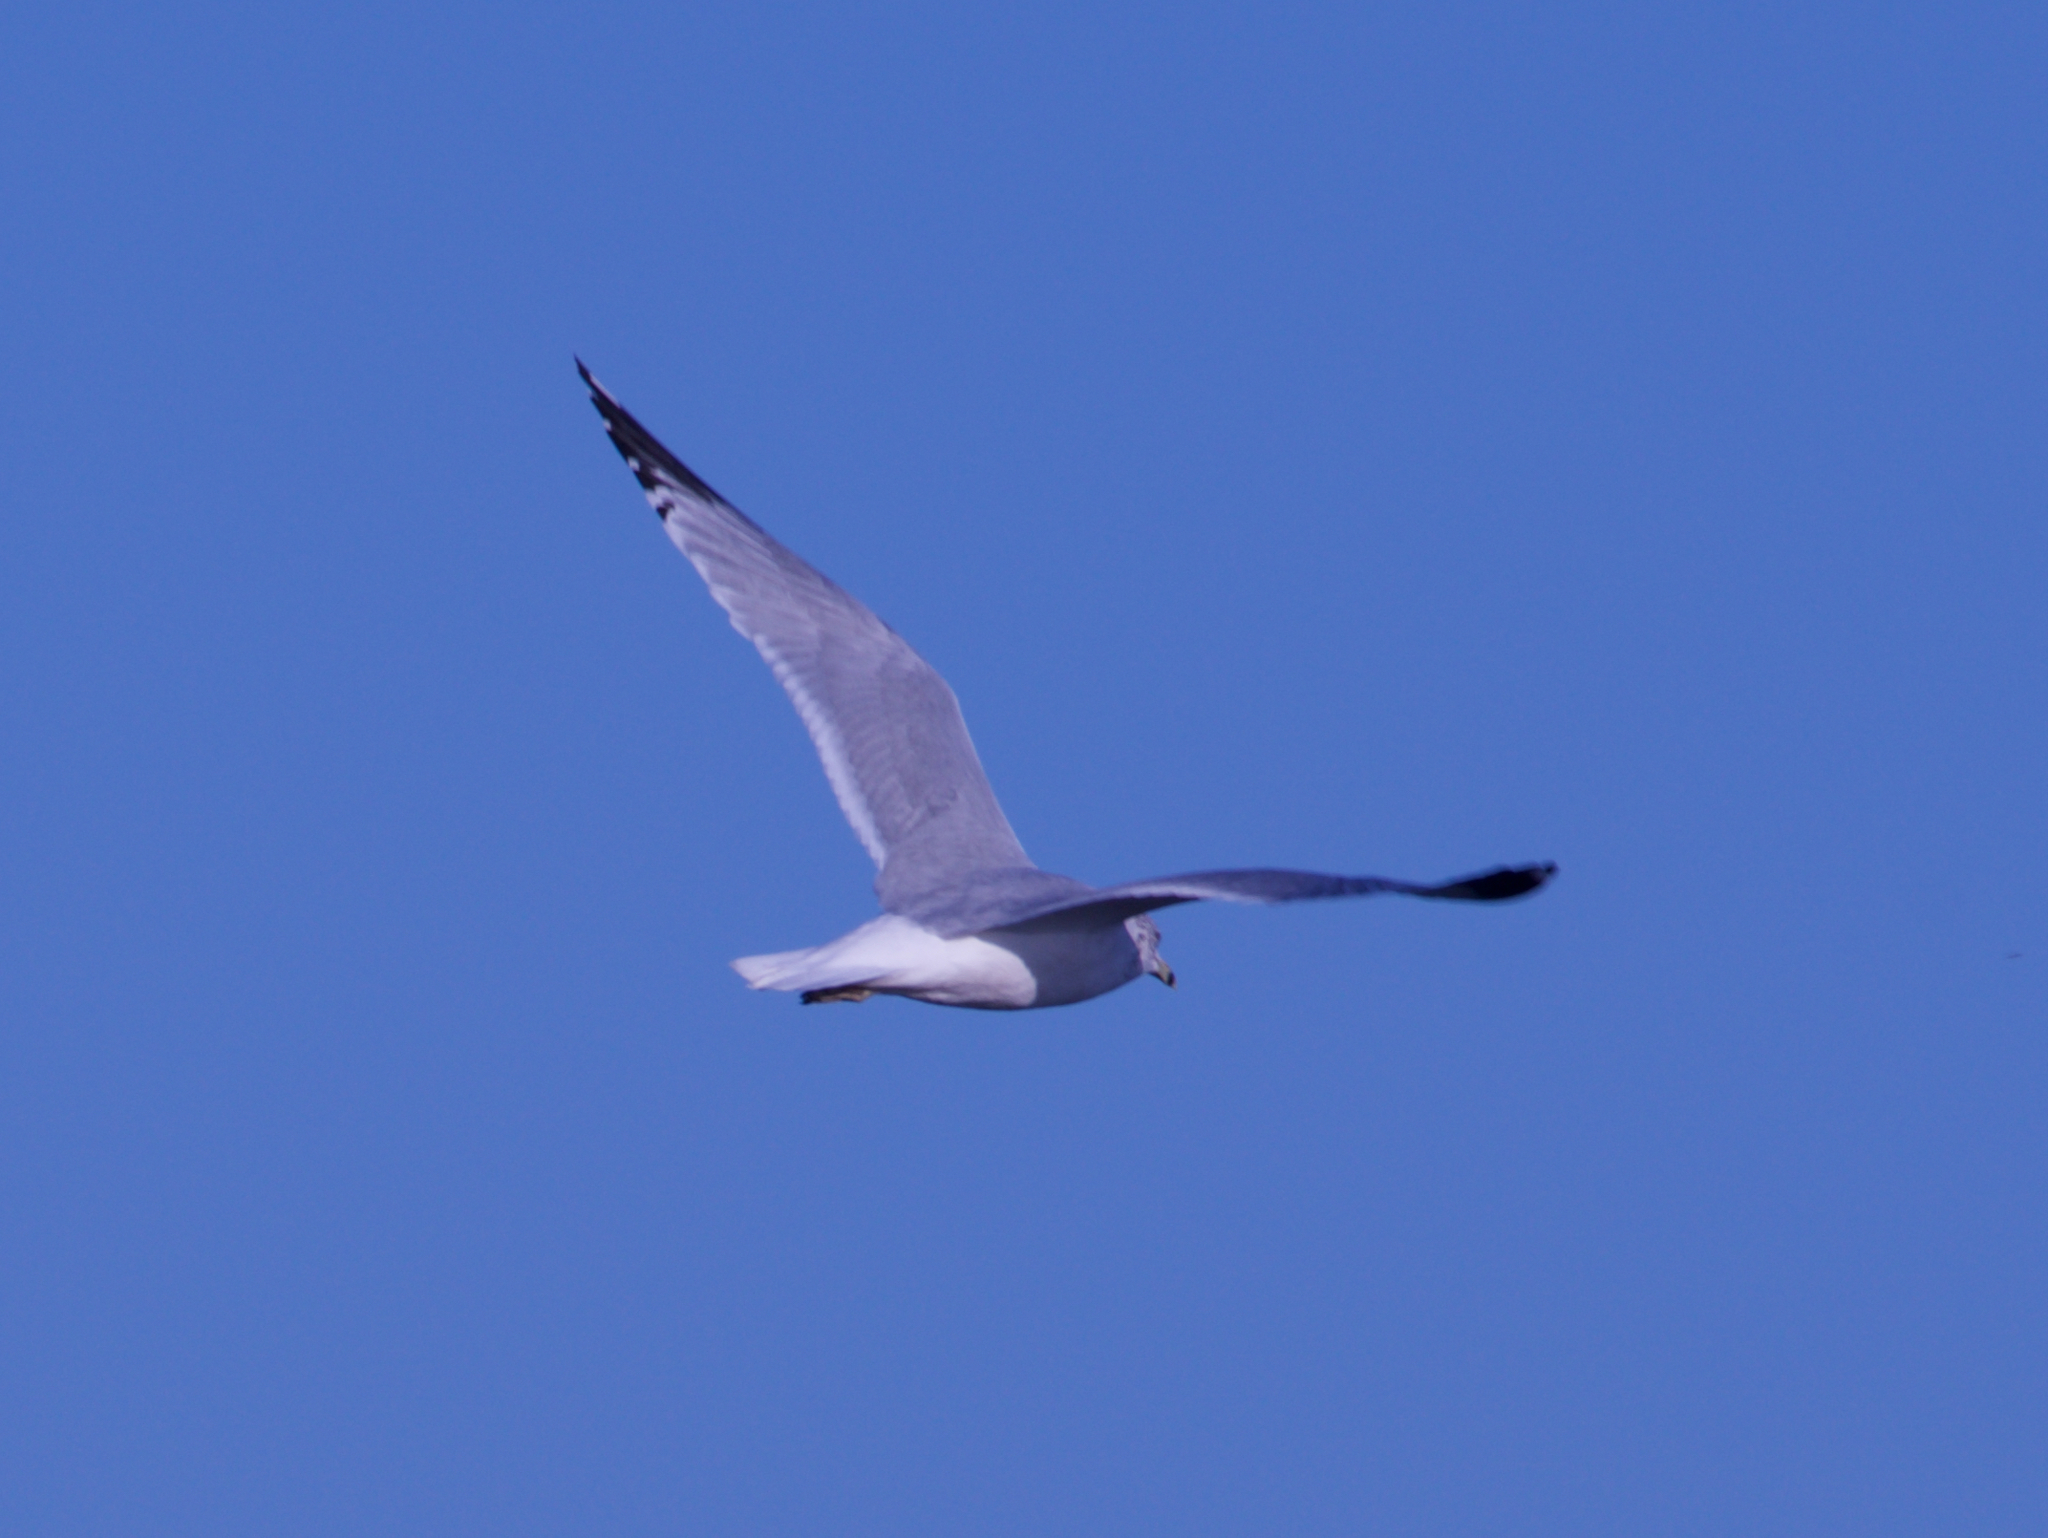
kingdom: Animalia
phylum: Chordata
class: Aves
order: Charadriiformes
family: Laridae
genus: Larus
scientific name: Larus delawarensis
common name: Ring-billed gull
